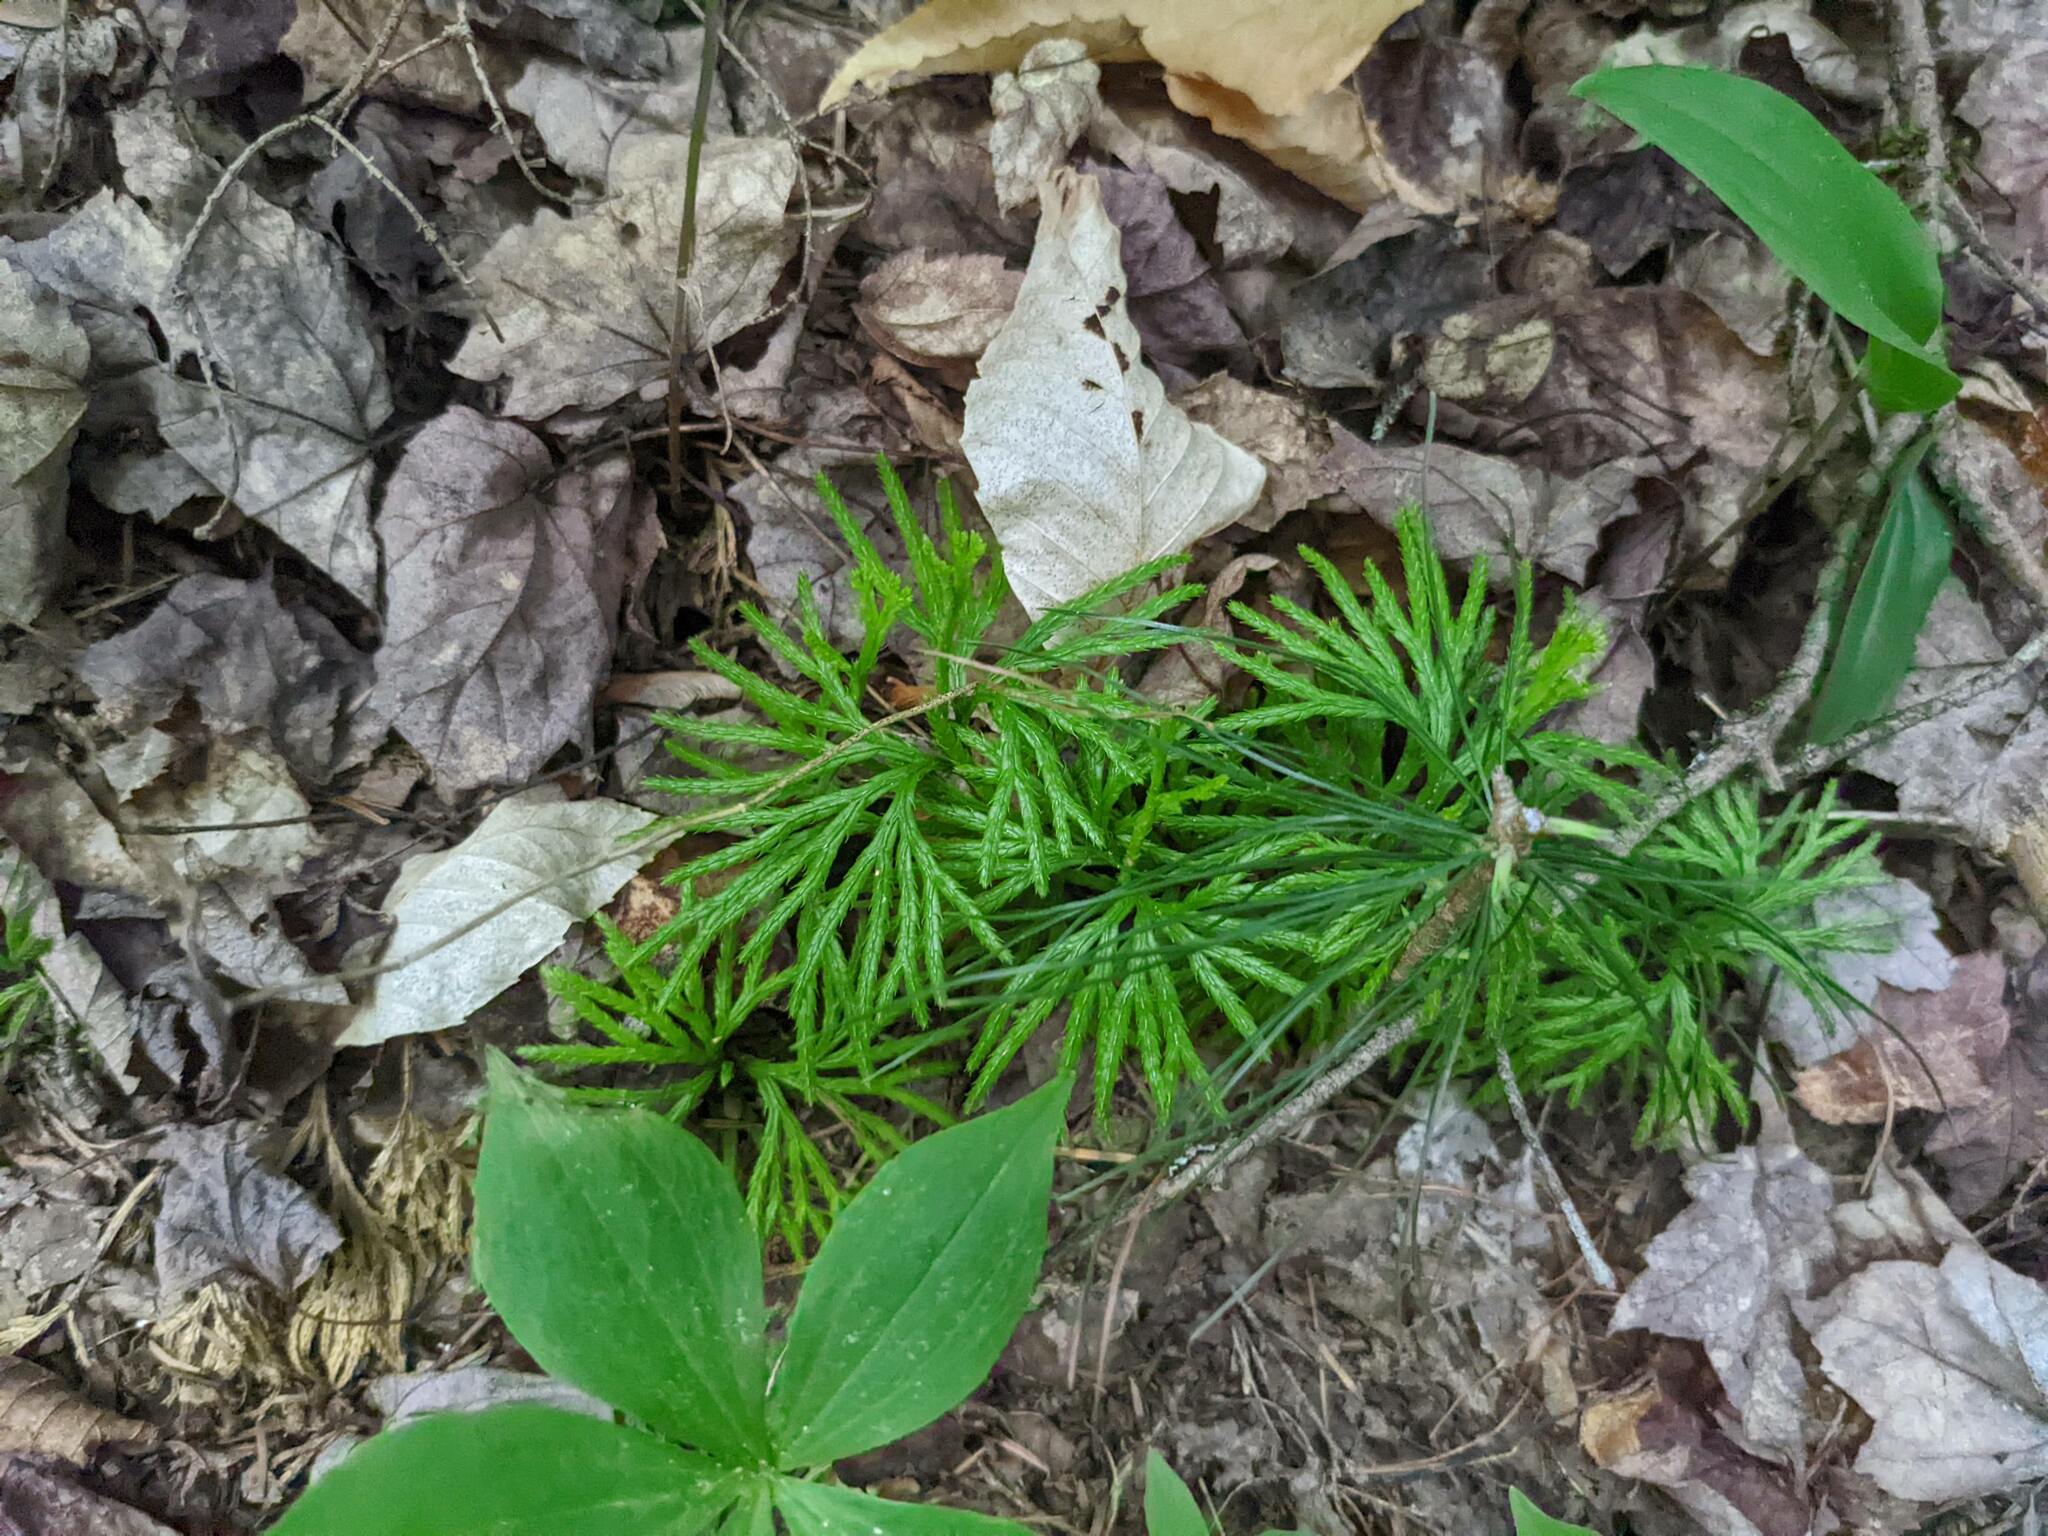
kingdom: Plantae
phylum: Tracheophyta
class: Lycopodiopsida
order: Lycopodiales
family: Lycopodiaceae
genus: Diphasiastrum
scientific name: Diphasiastrum digitatum
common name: Southern running-pine
